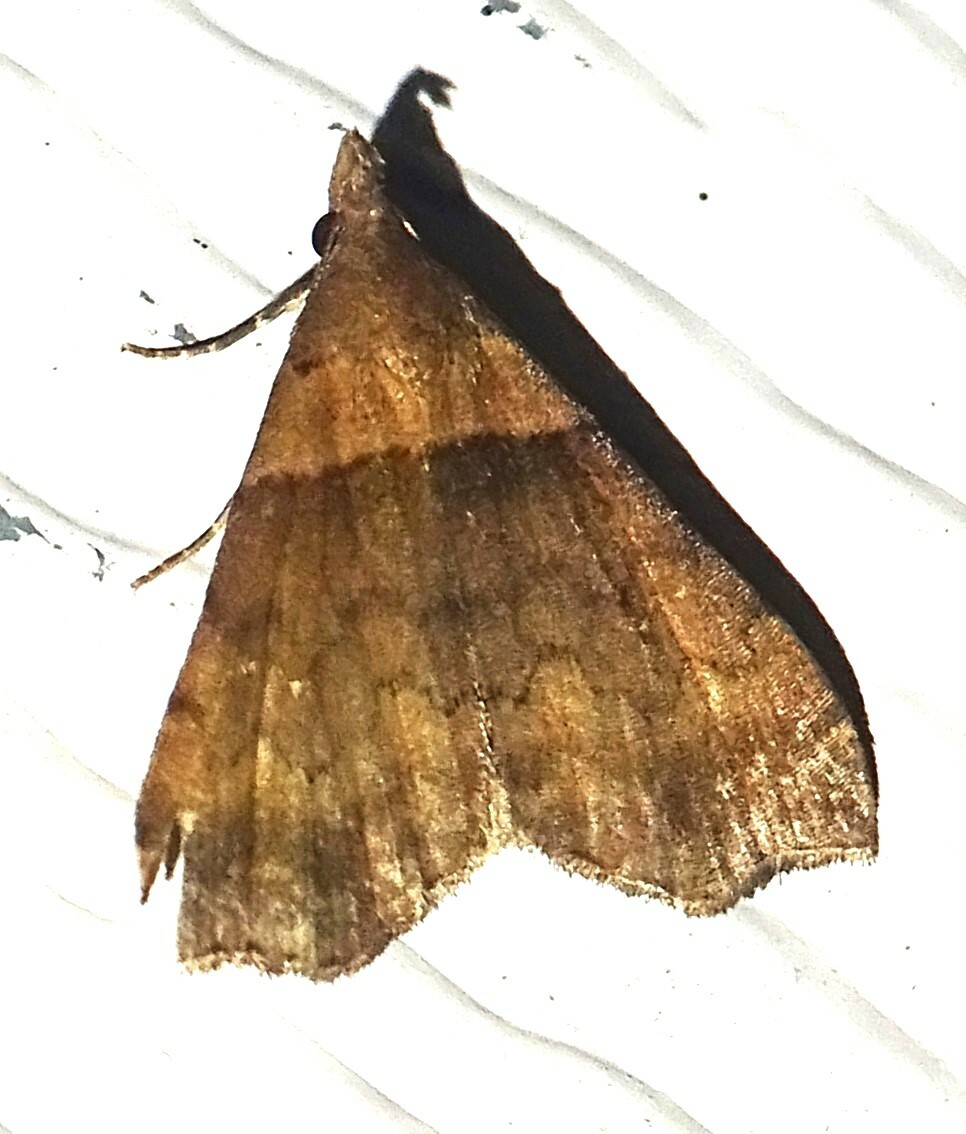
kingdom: Animalia
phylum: Arthropoda
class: Insecta
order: Lepidoptera
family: Erebidae
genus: Lascoria
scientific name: Lascoria ambigualis
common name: Ambiguous moth
